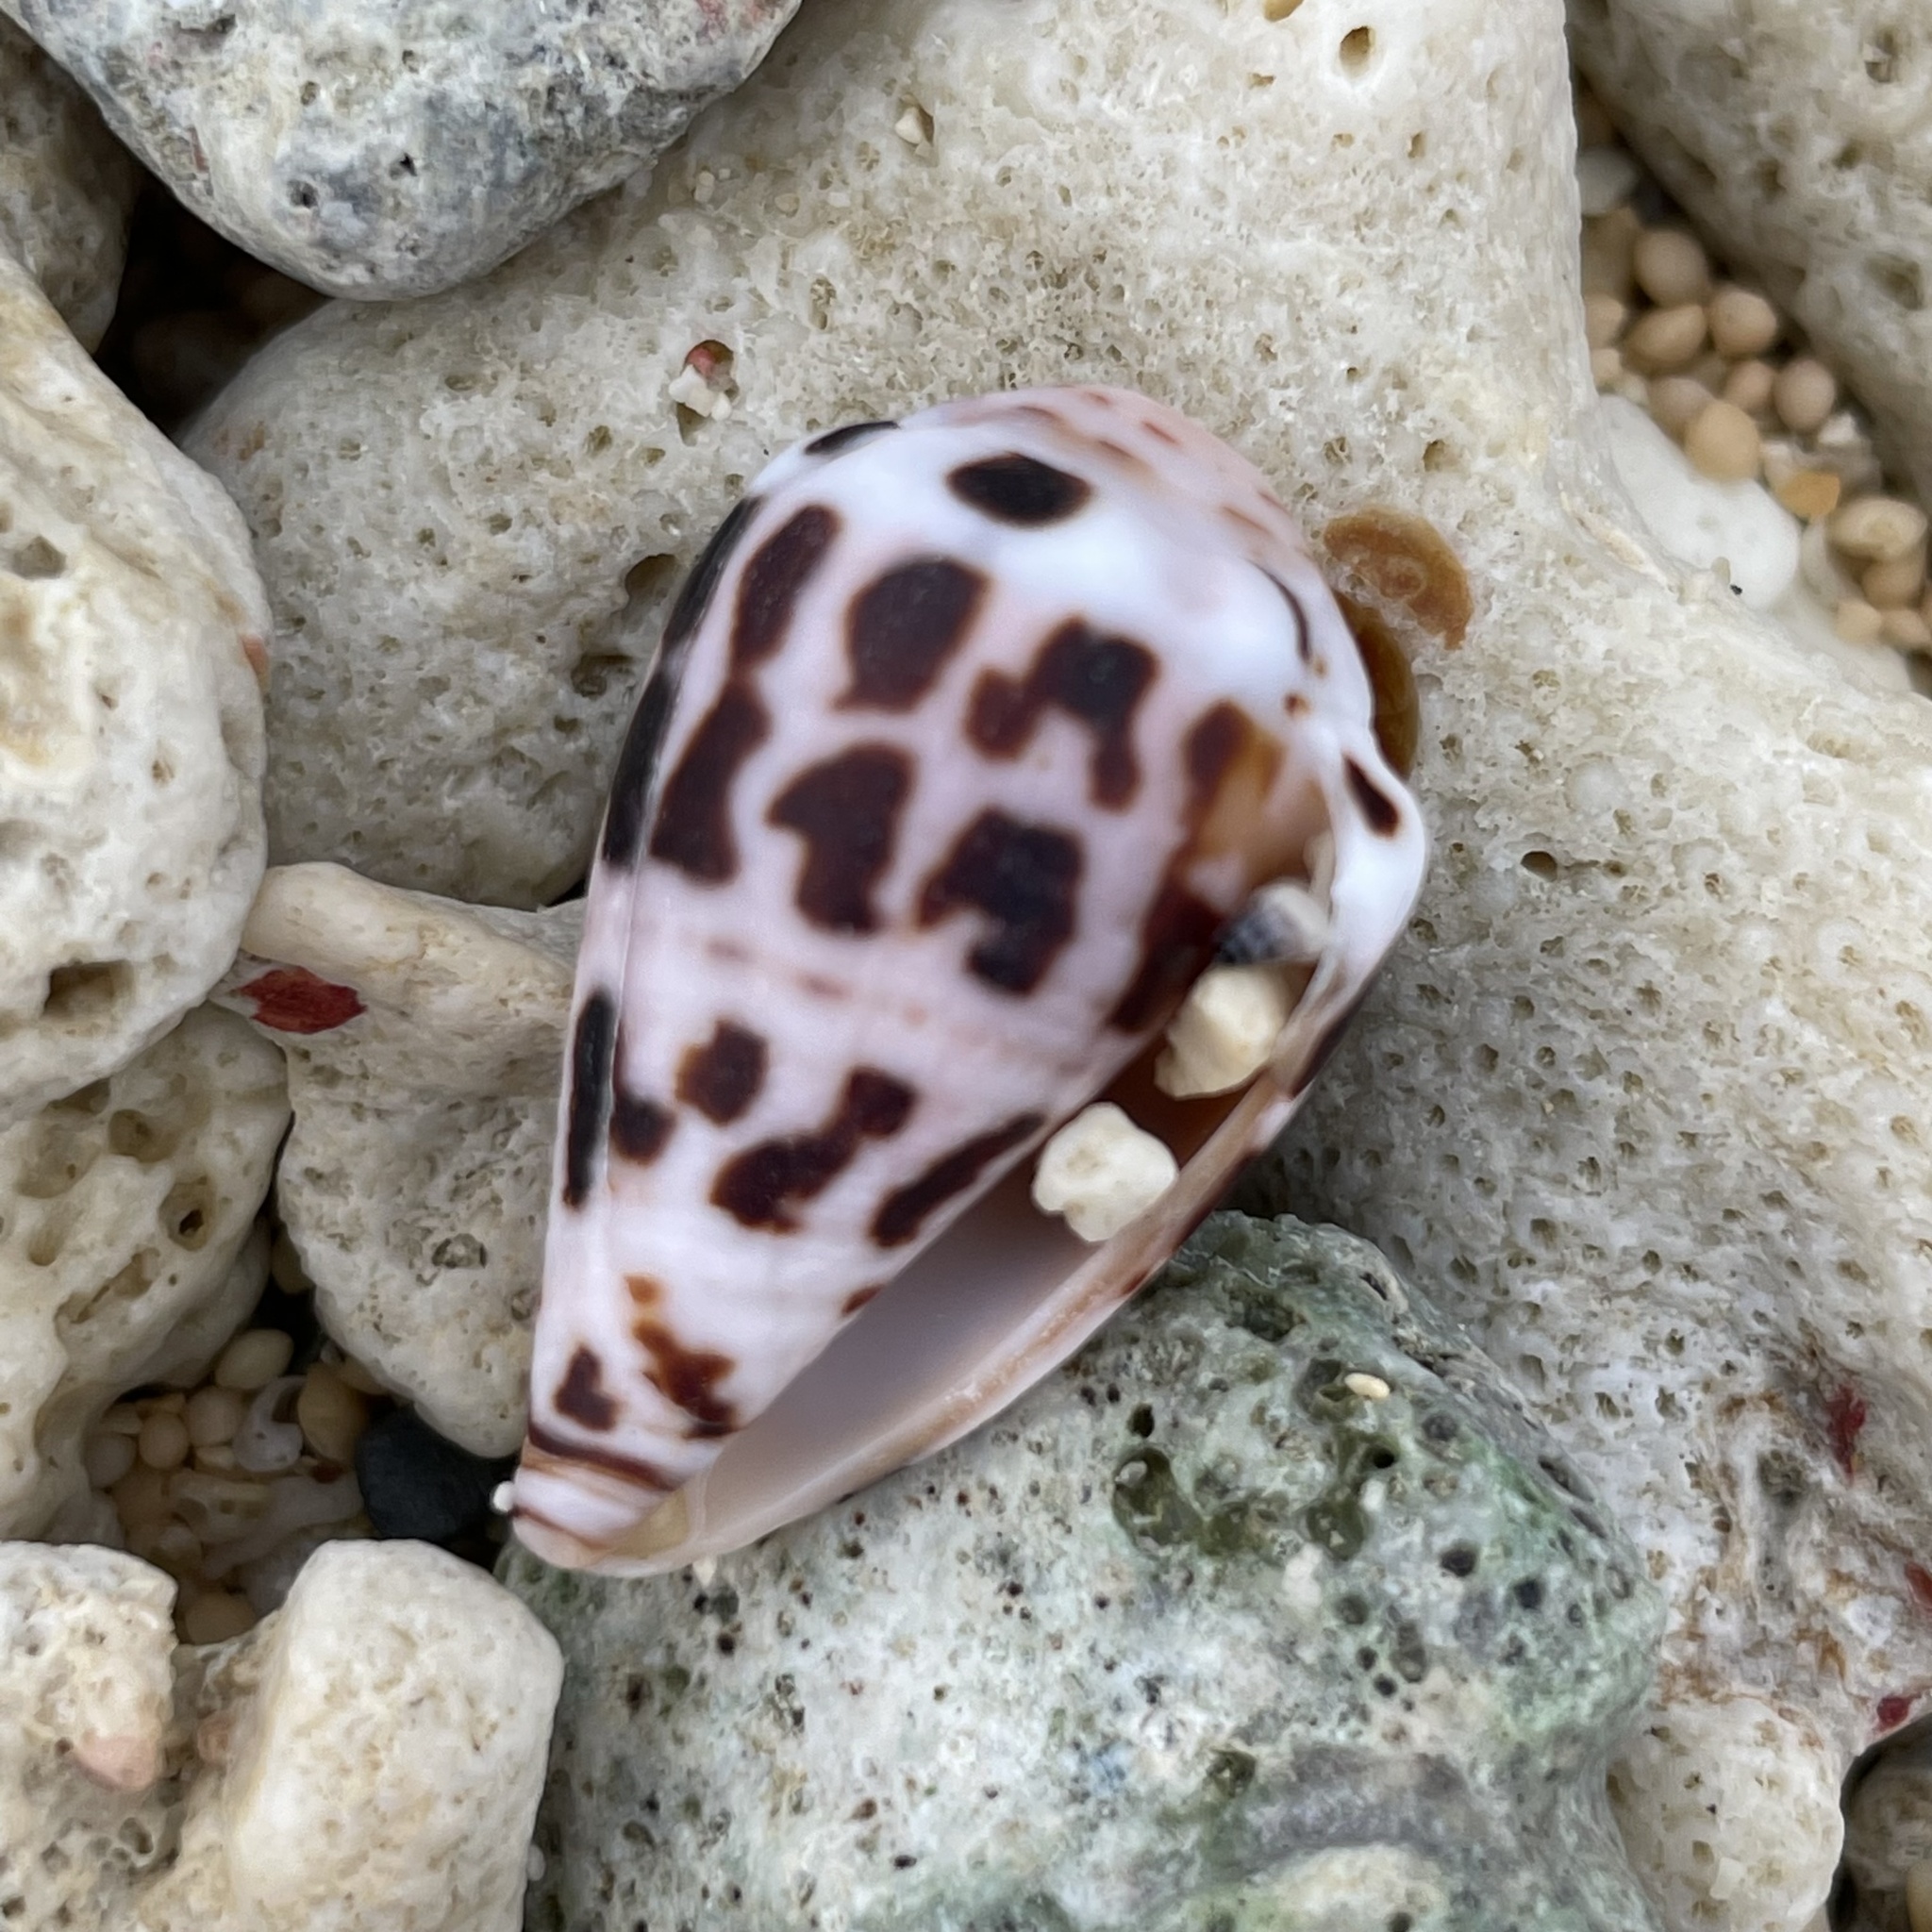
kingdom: Animalia
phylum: Mollusca
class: Gastropoda
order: Neogastropoda
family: Conidae
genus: Conus
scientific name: Conus ebraeus
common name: Hebrew cone
